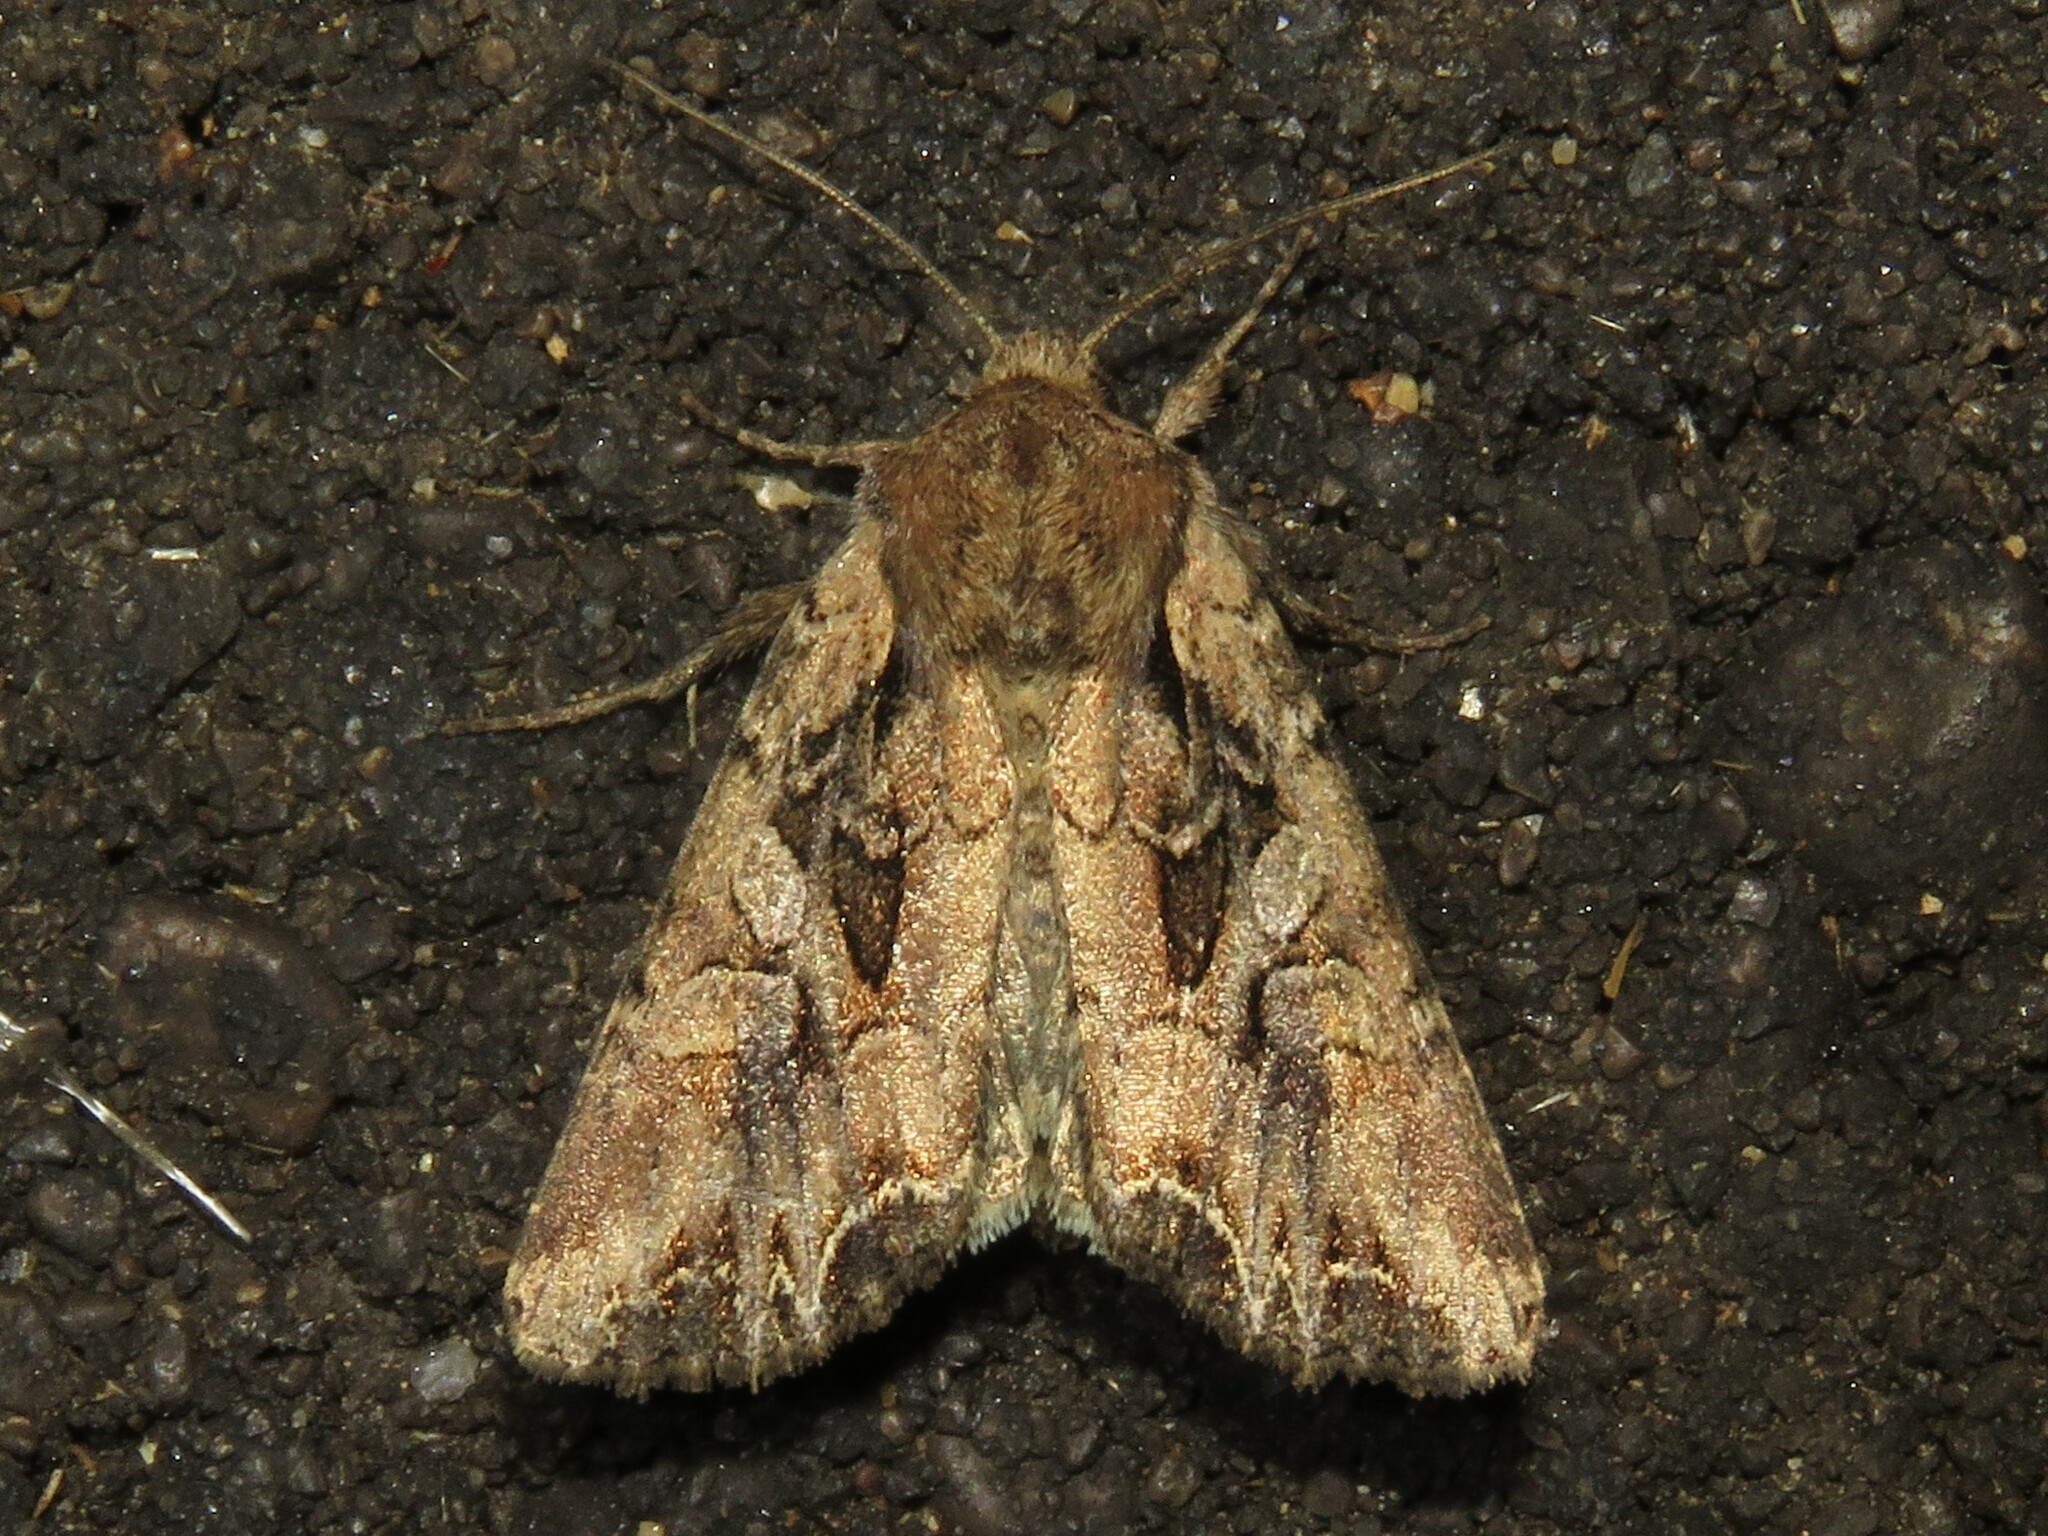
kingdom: Animalia
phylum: Arthropoda
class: Insecta
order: Lepidoptera
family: Noctuidae
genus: Lacanobia
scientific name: Lacanobia atlantica
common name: Atlantic arches moth
